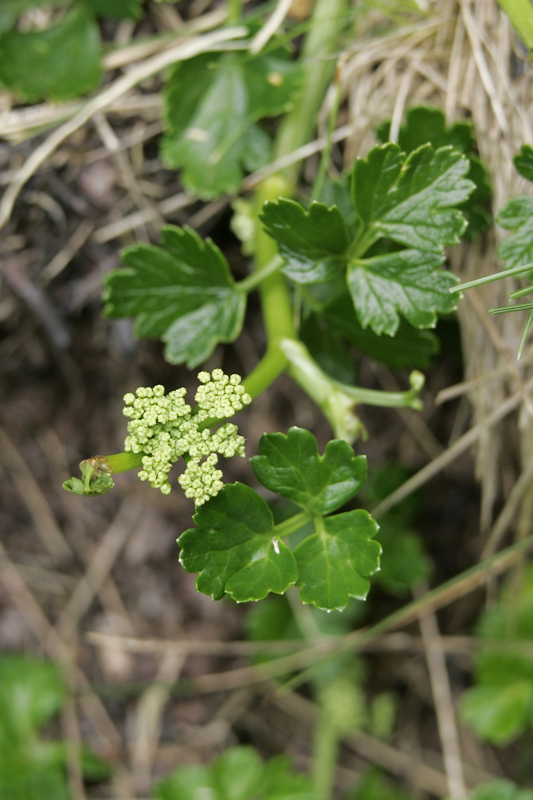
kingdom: Plantae
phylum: Tracheophyta
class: Magnoliopsida
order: Apiales
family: Apiaceae
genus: Apium
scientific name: Apium prostratum
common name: Prostrate marshwort
